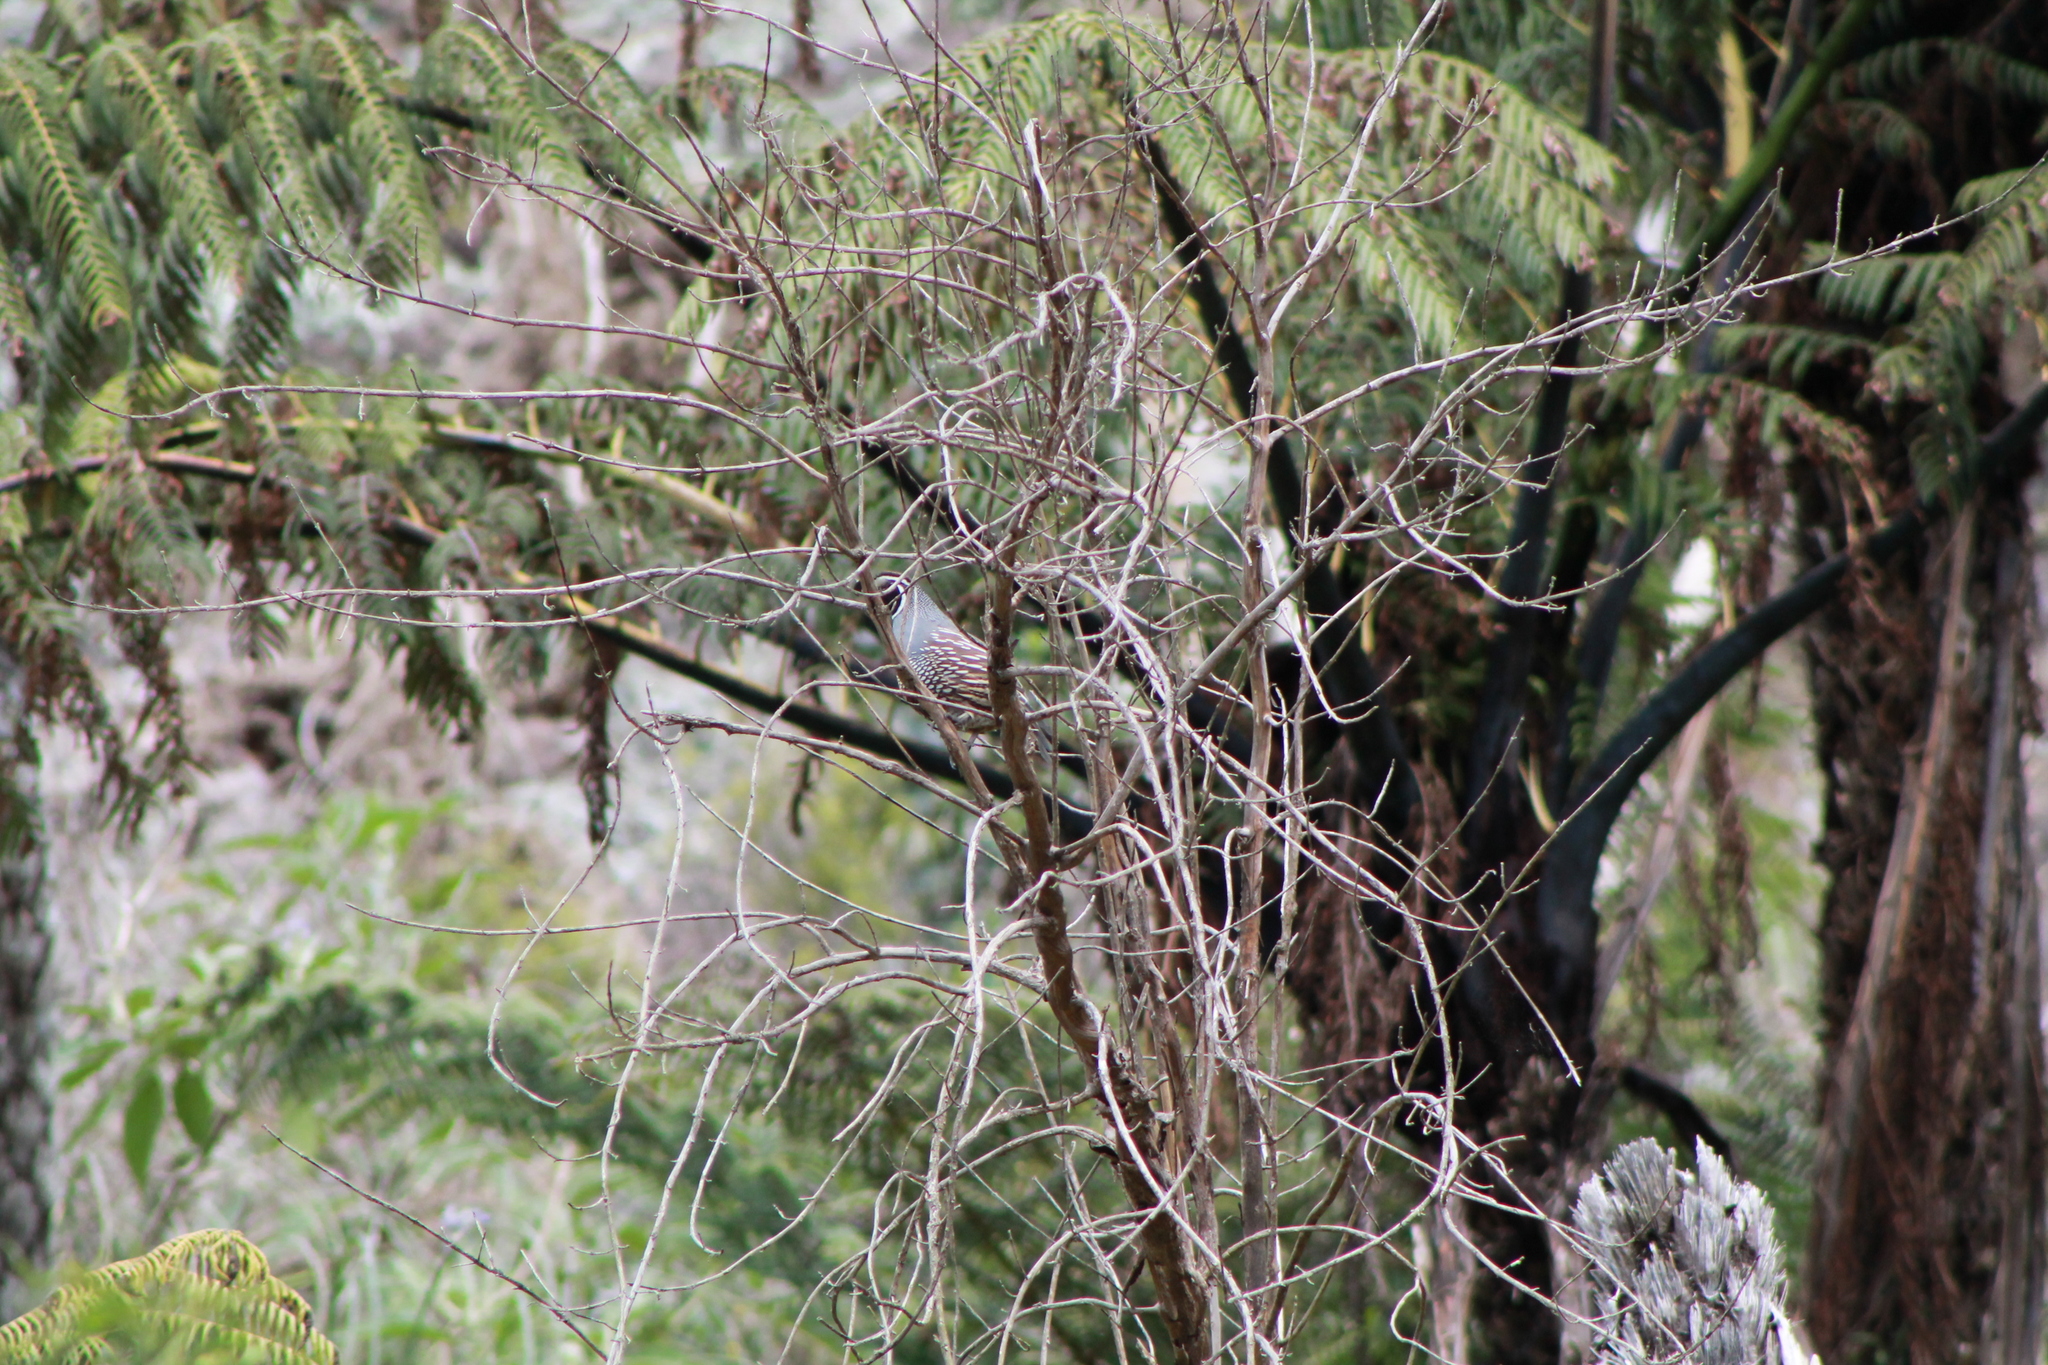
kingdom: Animalia
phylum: Chordata
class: Aves
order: Galliformes
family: Odontophoridae
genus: Callipepla
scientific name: Callipepla californica
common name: California quail
